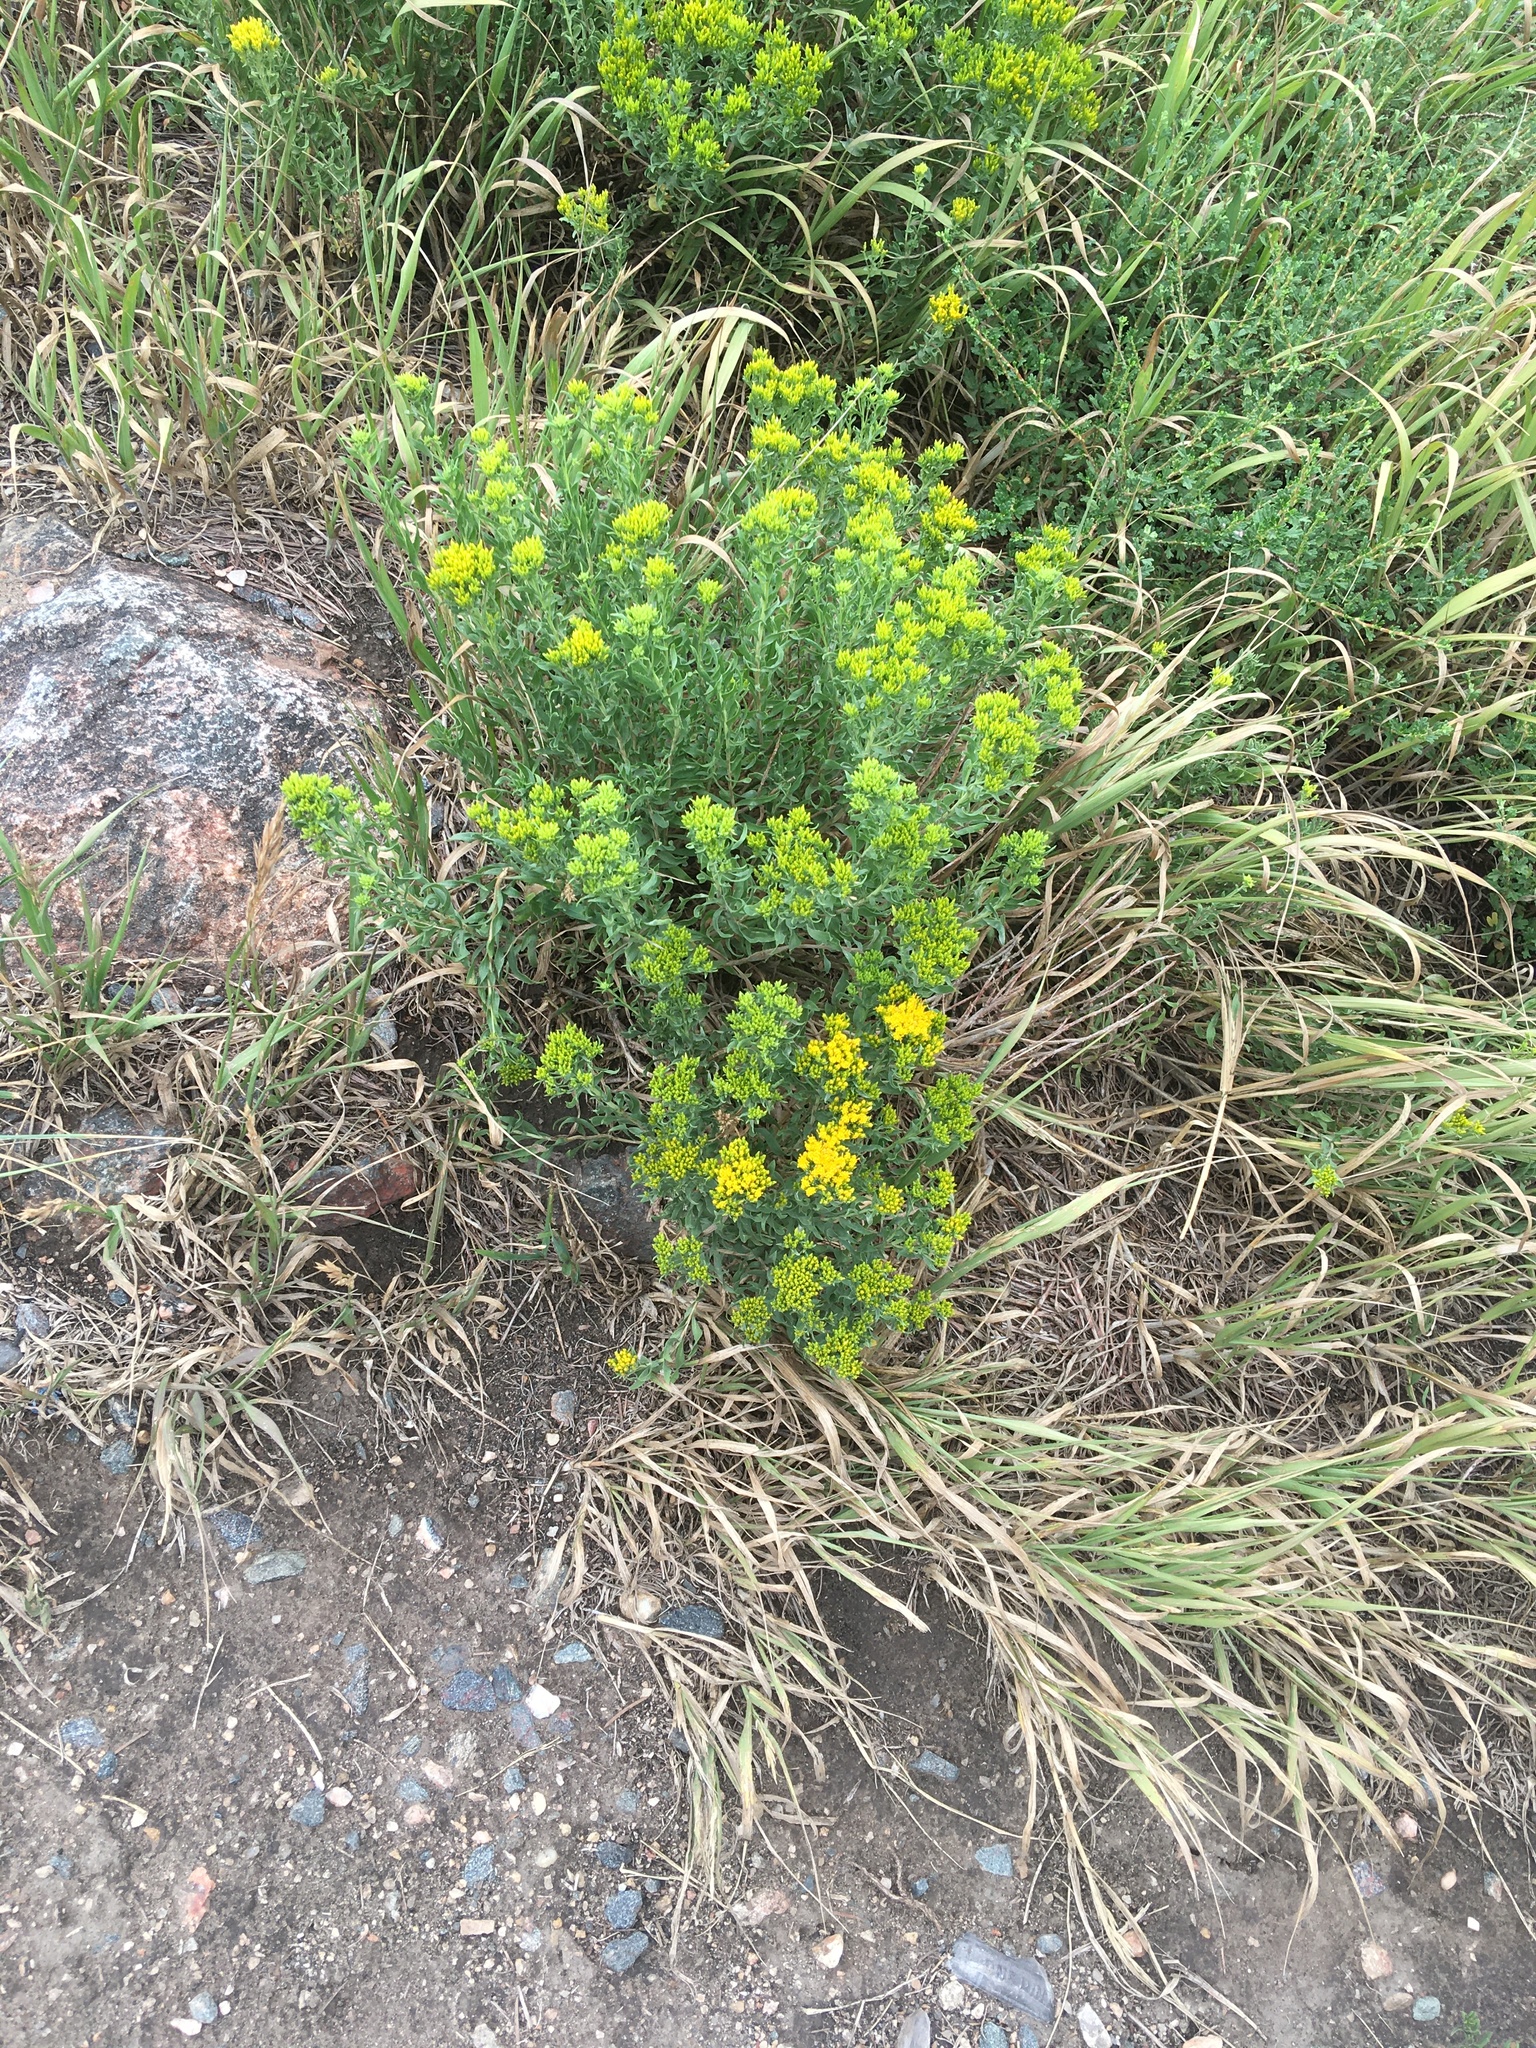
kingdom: Plantae
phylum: Tracheophyta
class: Magnoliopsida
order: Asterales
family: Asteraceae
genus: Chrysothamnus
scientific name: Chrysothamnus viscidiflorus
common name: Yellow rabbitbrush
